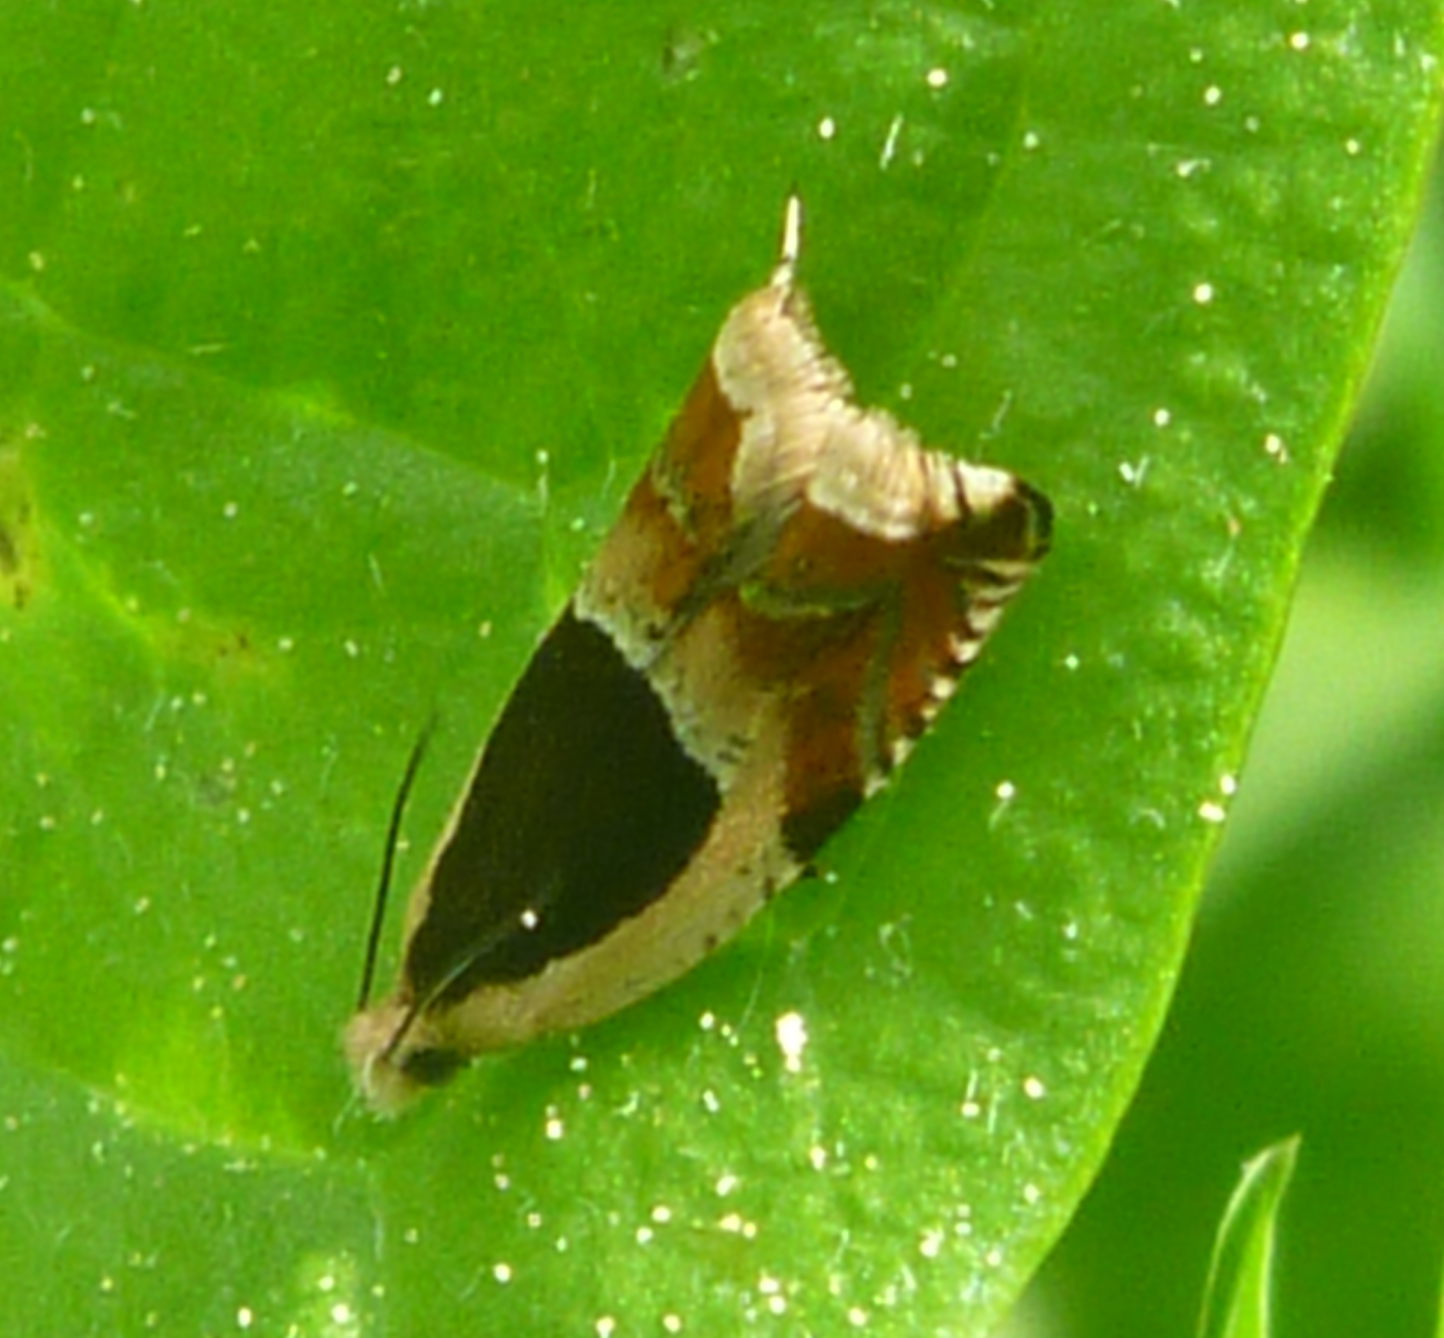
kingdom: Animalia
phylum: Arthropoda
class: Insecta
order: Lepidoptera
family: Tortricidae
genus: Ancylis
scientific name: Ancylis badiana
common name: Common roller
